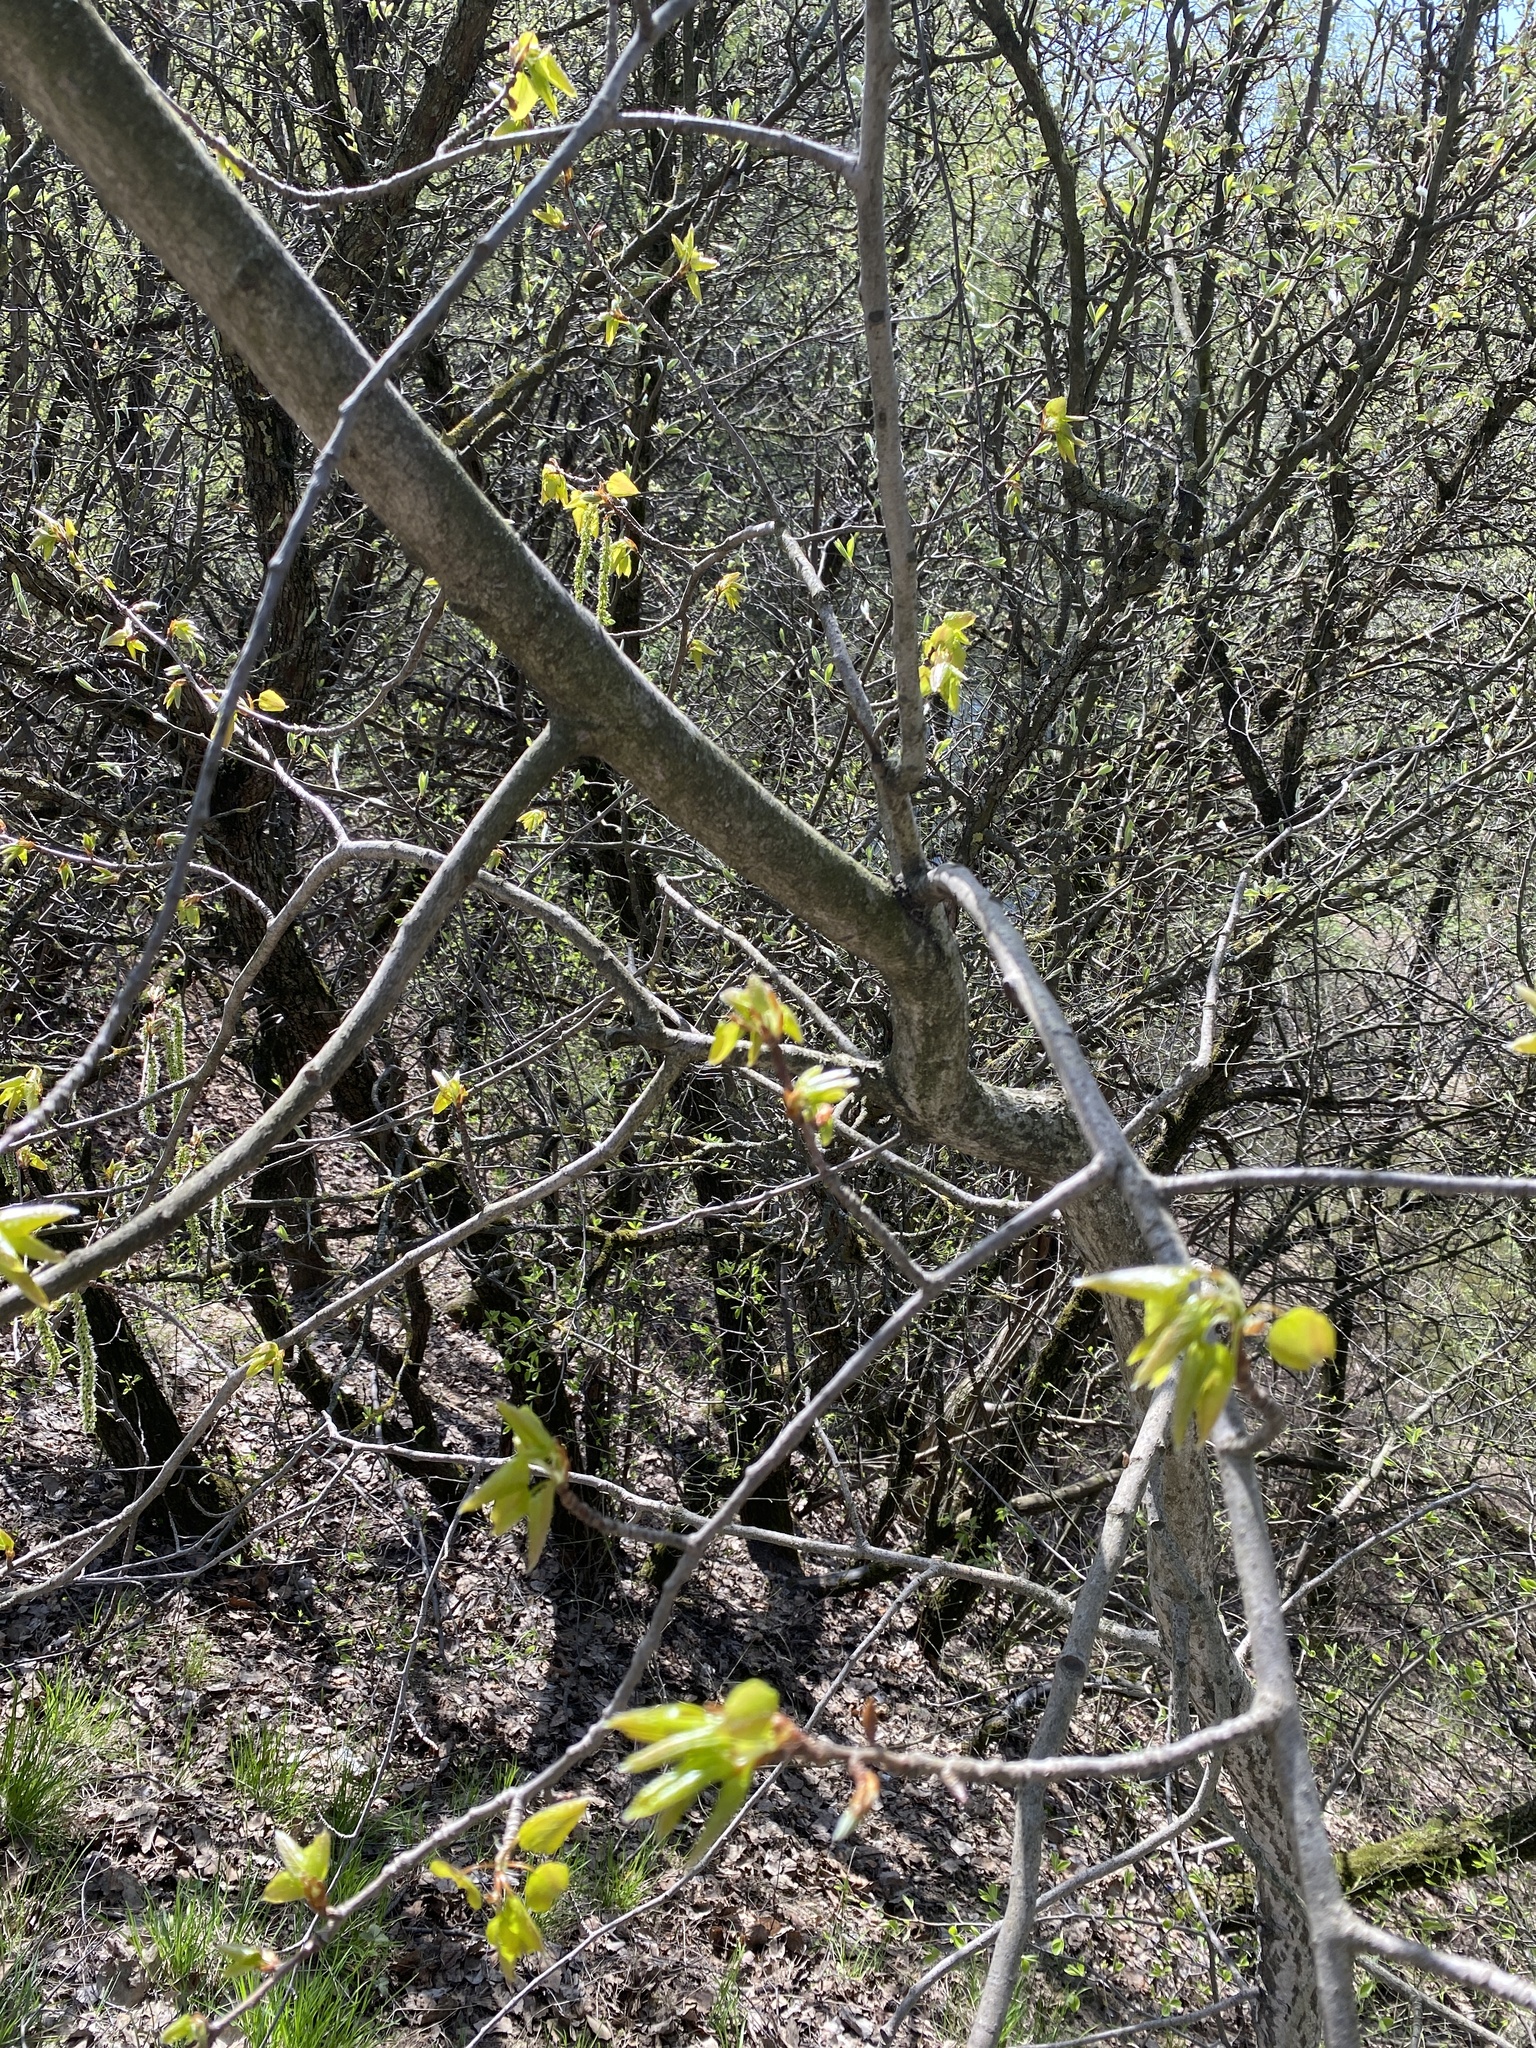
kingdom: Plantae
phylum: Tracheophyta
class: Magnoliopsida
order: Malpighiales
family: Salicaceae
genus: Populus
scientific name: Populus tremula
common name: European aspen
